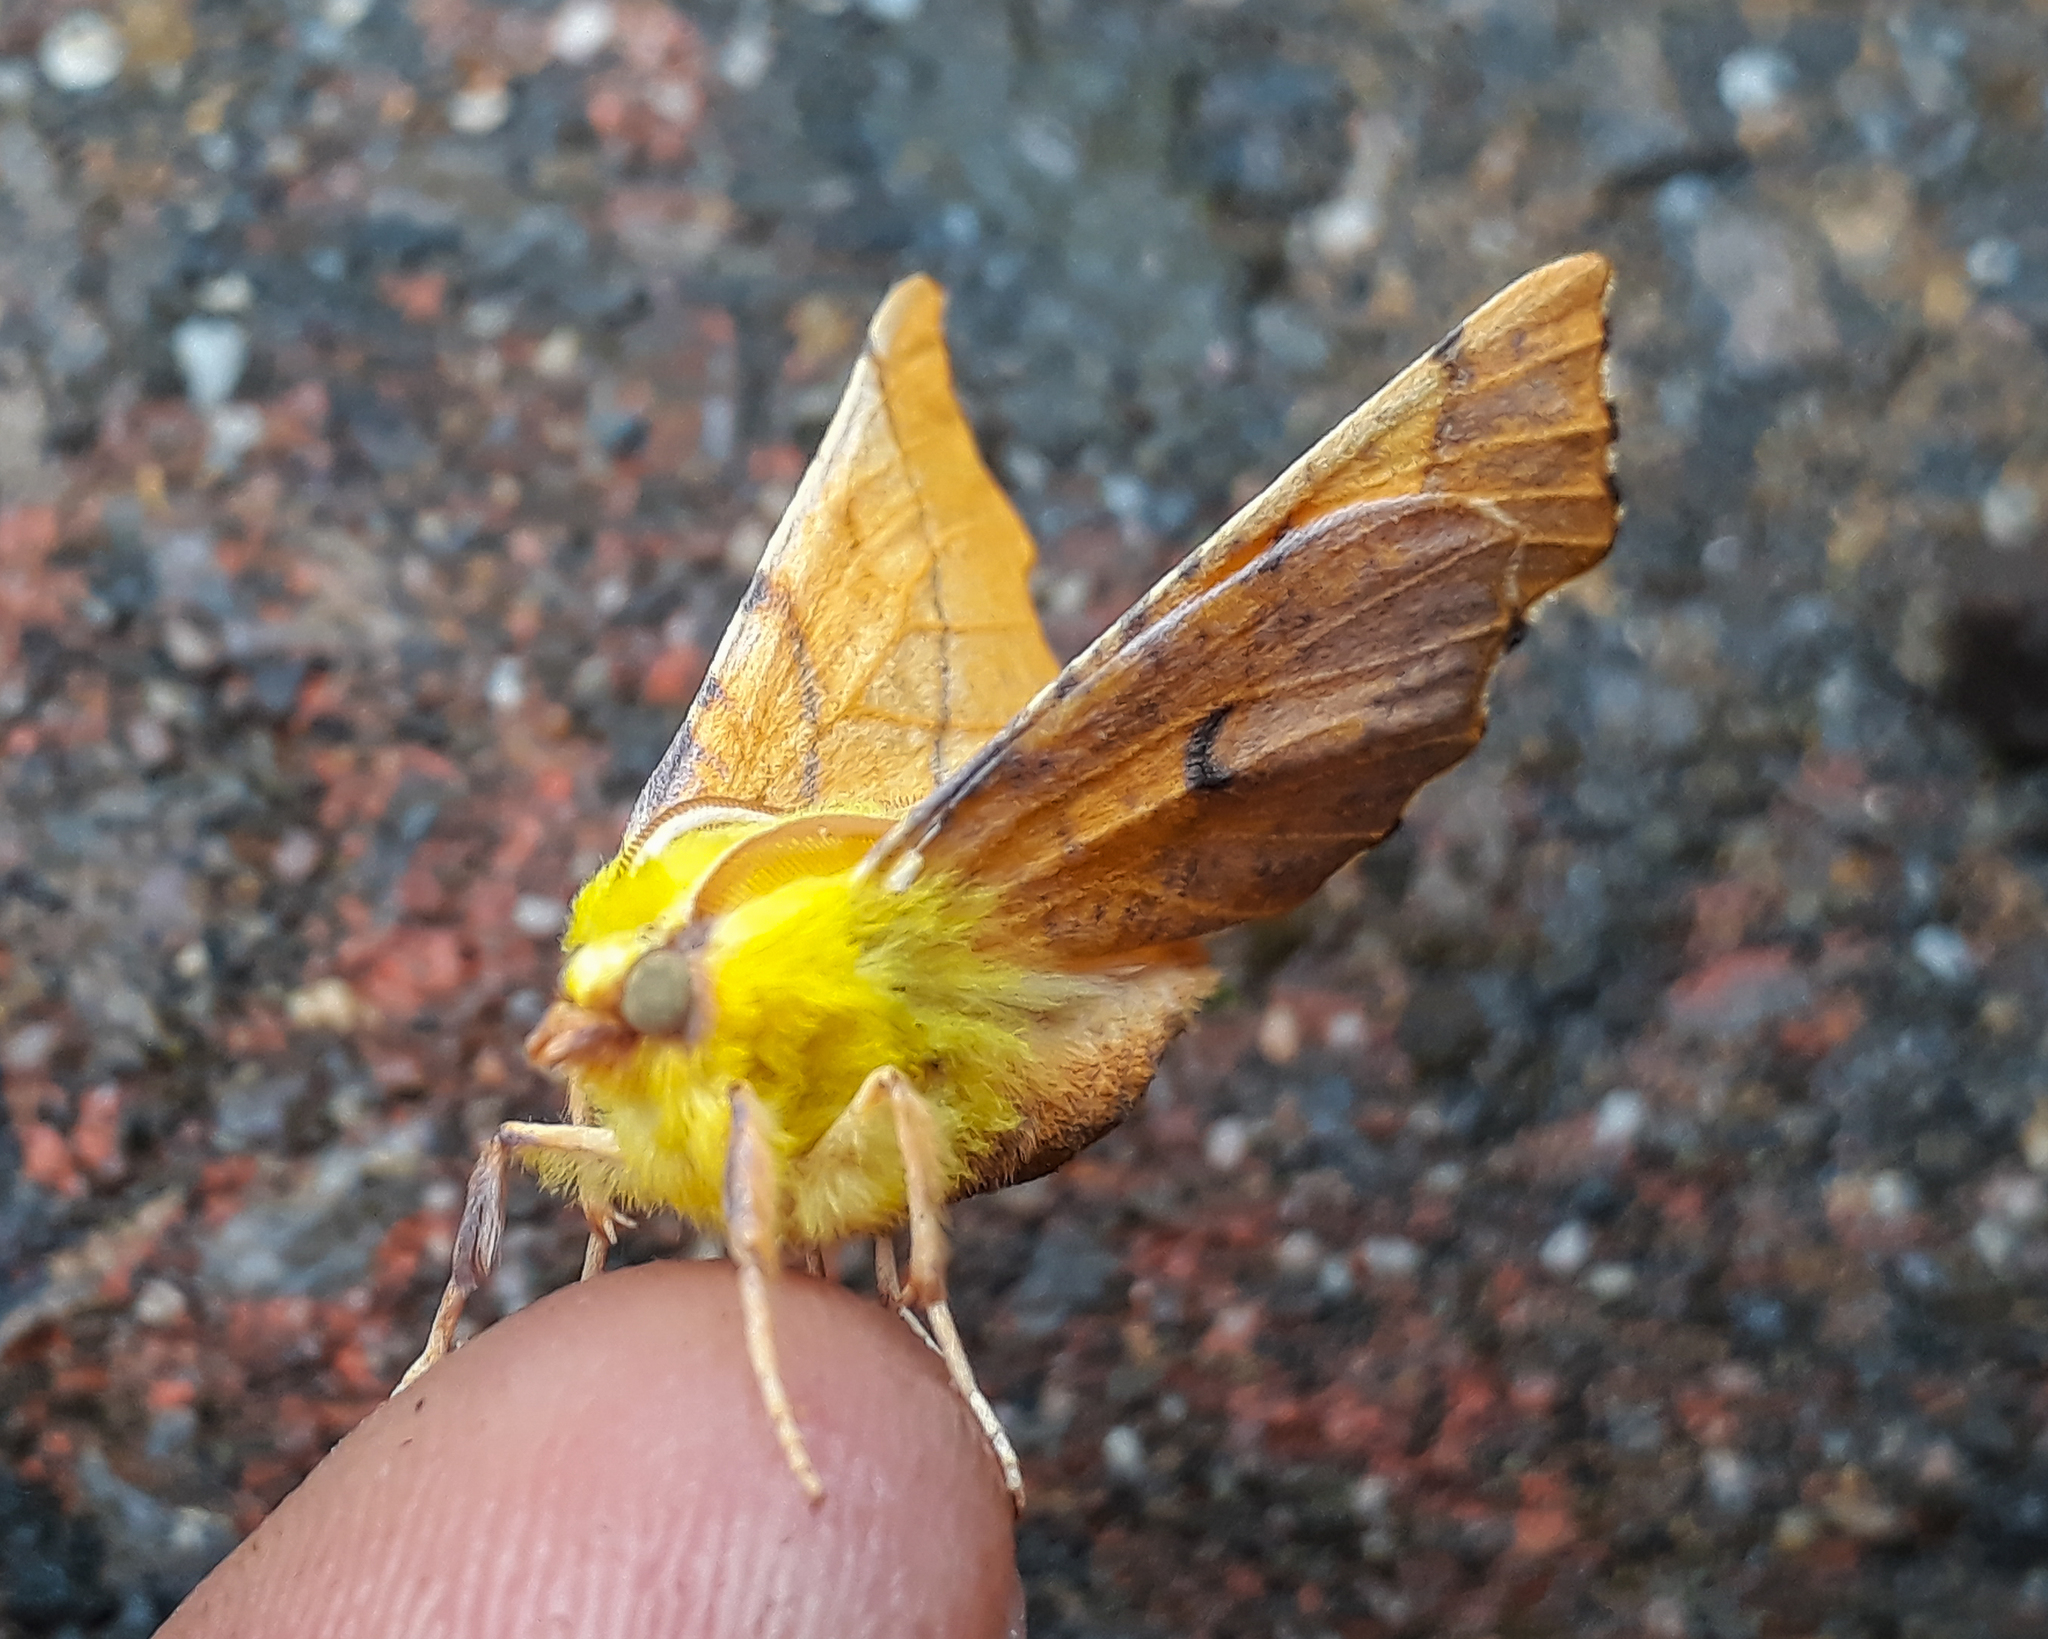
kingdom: Animalia
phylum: Arthropoda
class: Insecta
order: Lepidoptera
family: Geometridae
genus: Ennomos
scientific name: Ennomos alniaria
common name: Canary-shouldered thorn
